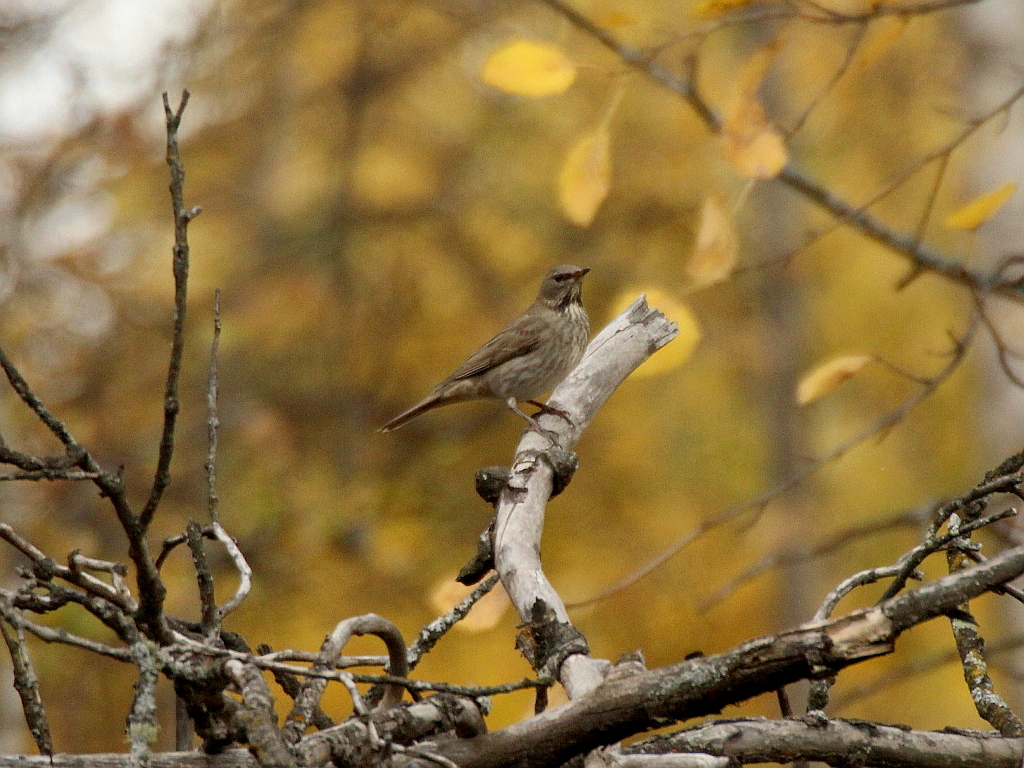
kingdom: Animalia
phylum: Chordata
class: Aves
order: Passeriformes
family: Turdidae
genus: Turdus
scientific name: Turdus atrogularis
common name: Black-throated thrush
